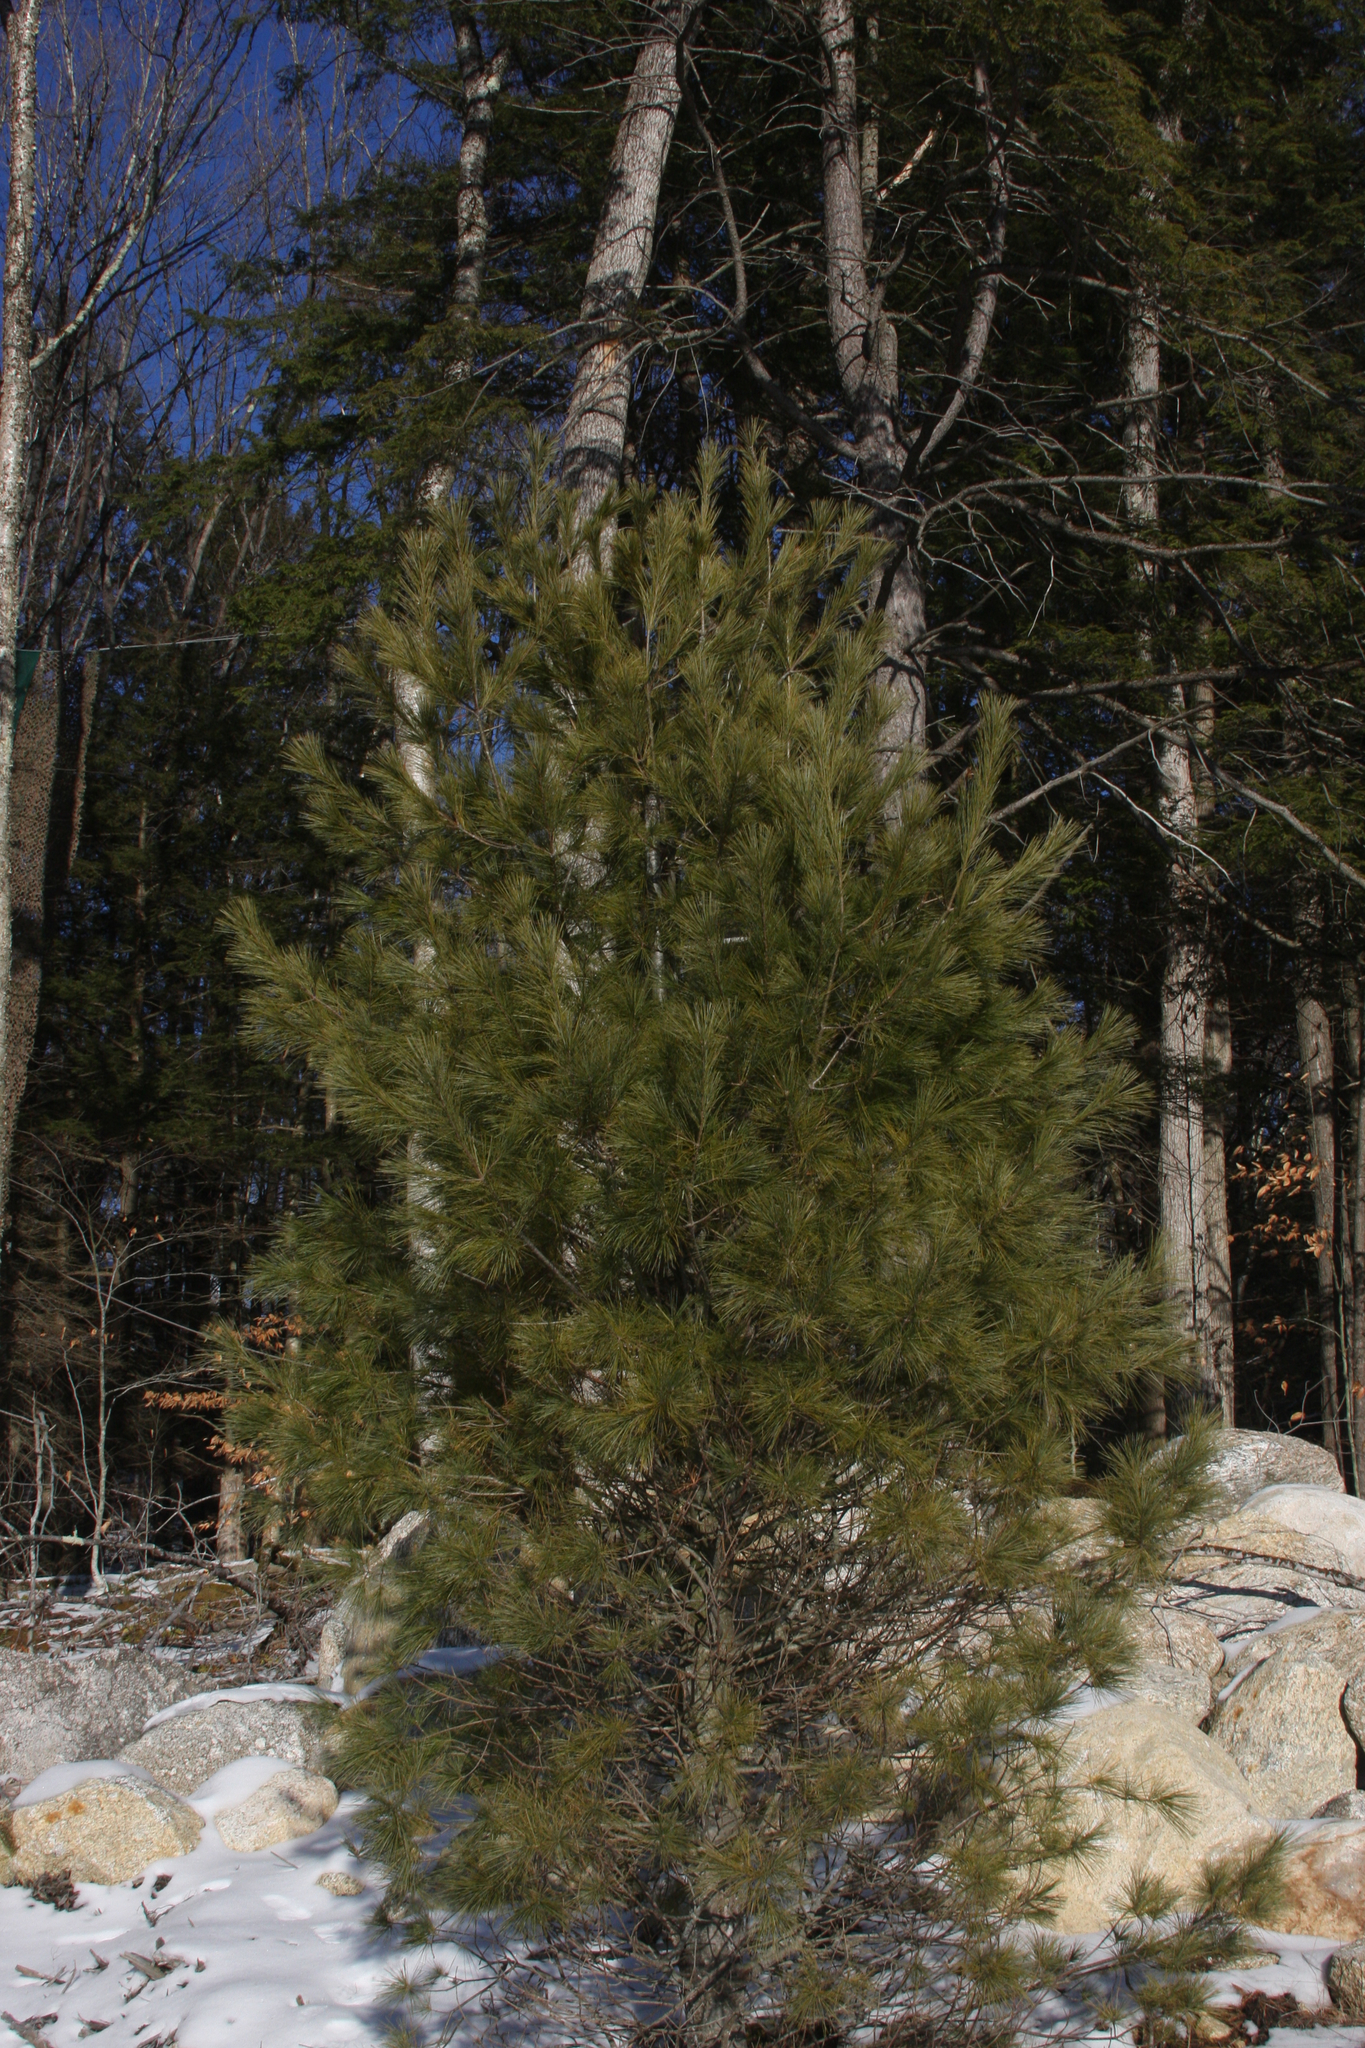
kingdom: Plantae
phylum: Tracheophyta
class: Pinopsida
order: Pinales
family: Pinaceae
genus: Pinus
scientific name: Pinus strobus
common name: Weymouth pine
